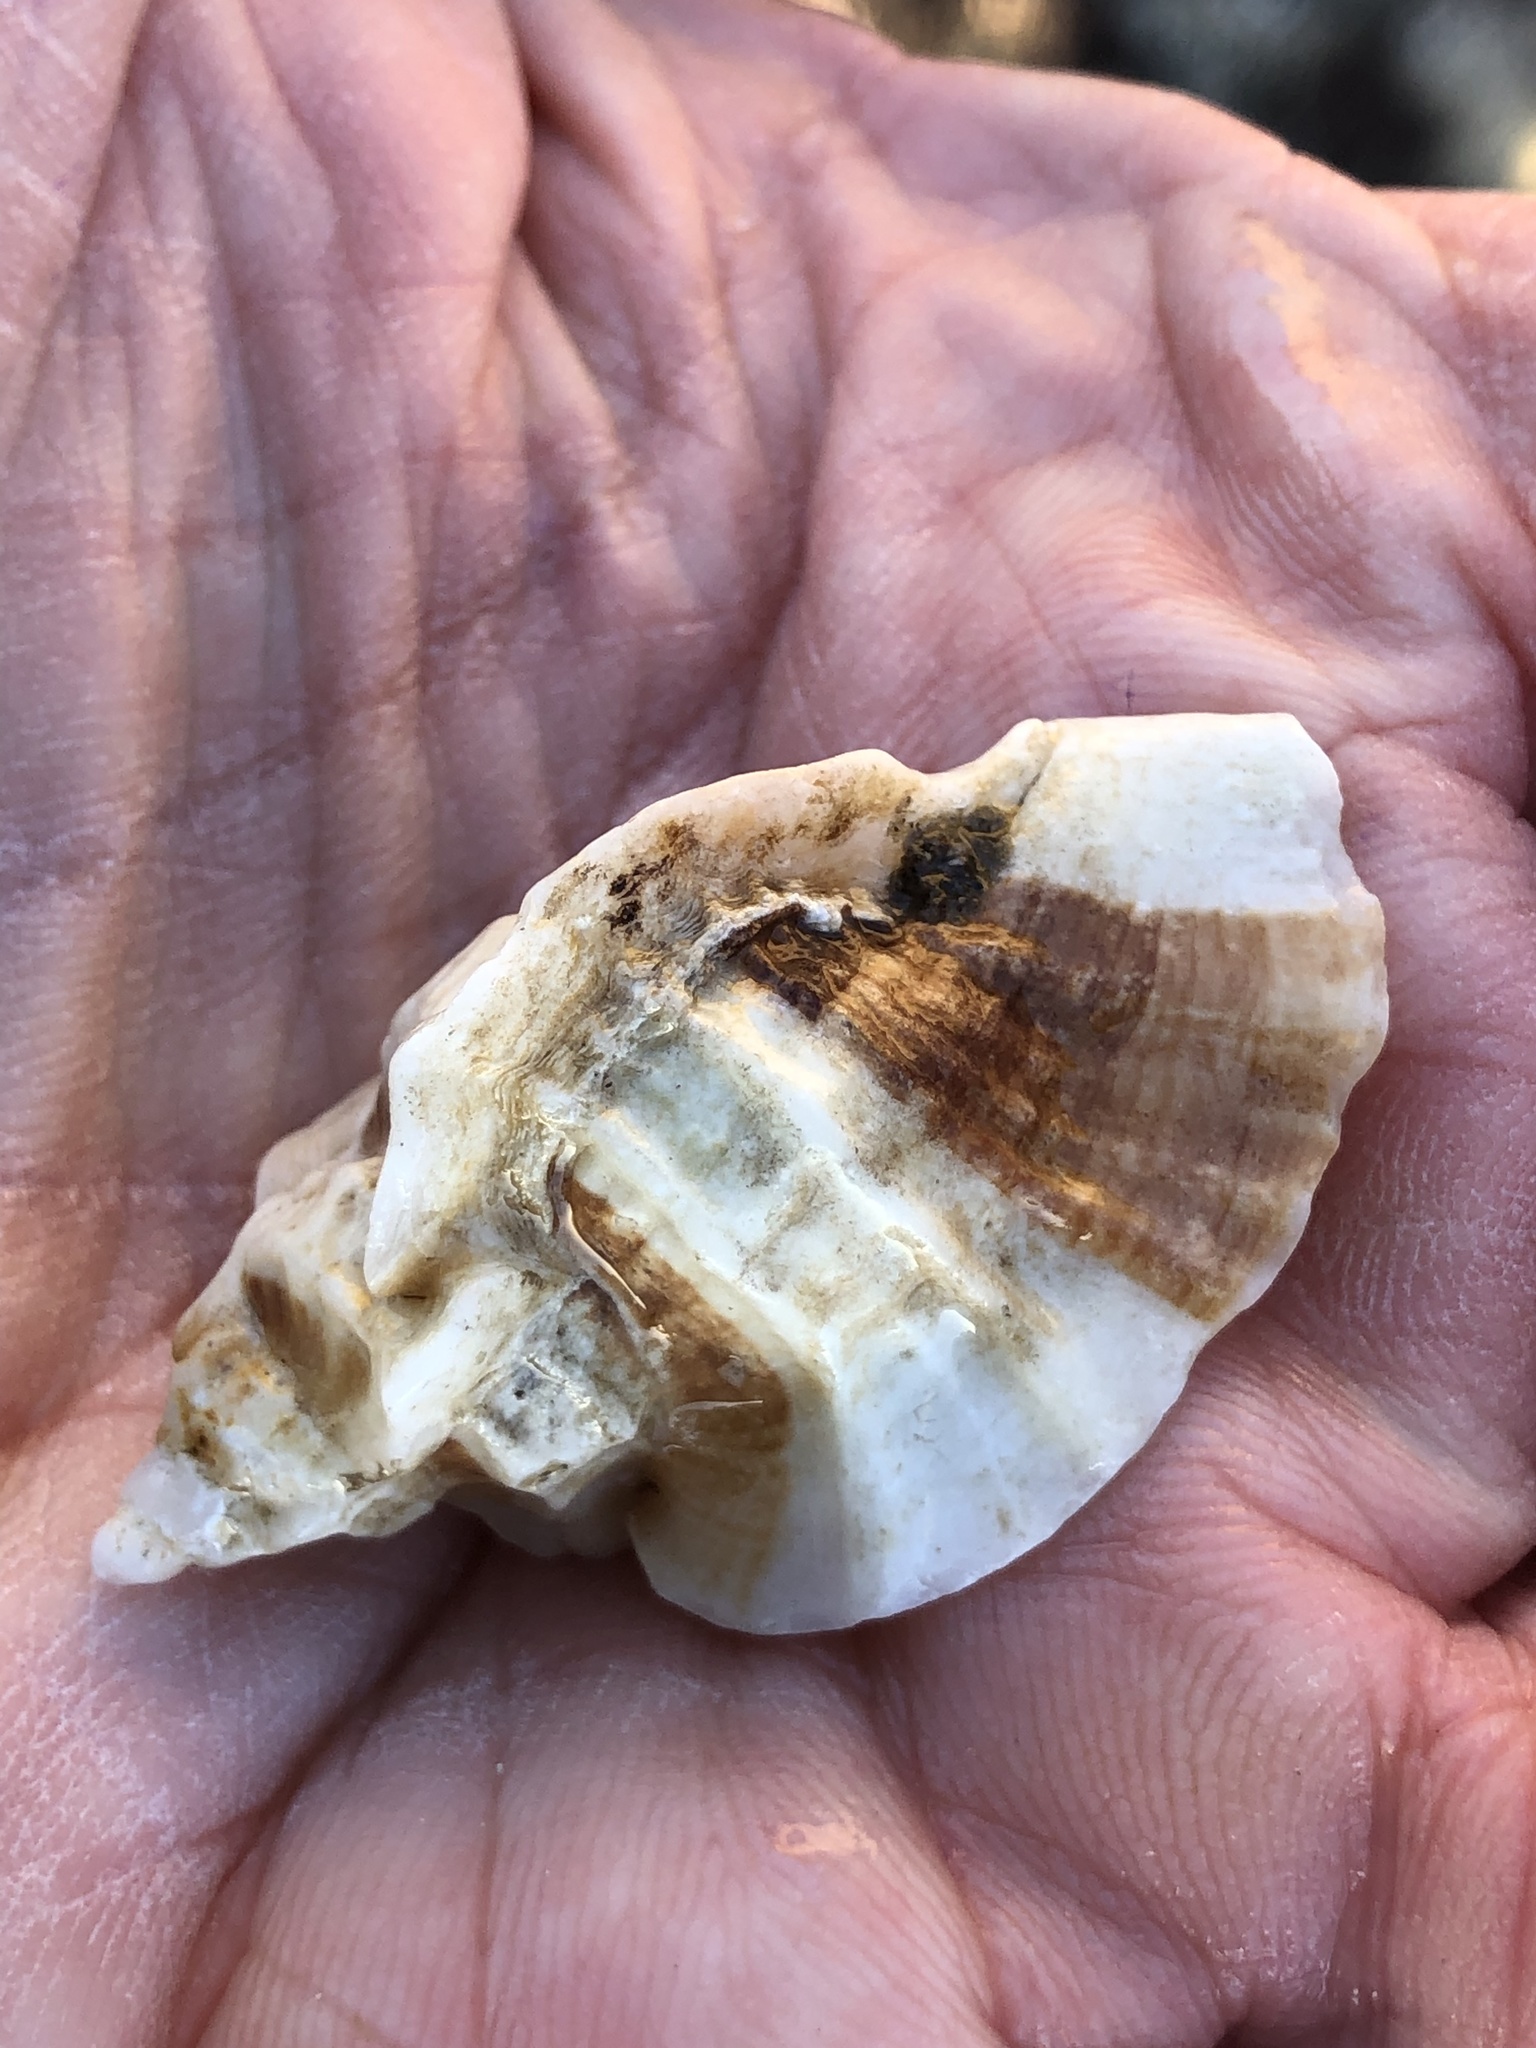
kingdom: Animalia
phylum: Mollusca
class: Gastropoda
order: Neogastropoda
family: Muricidae
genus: Ceratostoma
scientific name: Ceratostoma foliatum
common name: Foliate thorn purpura
